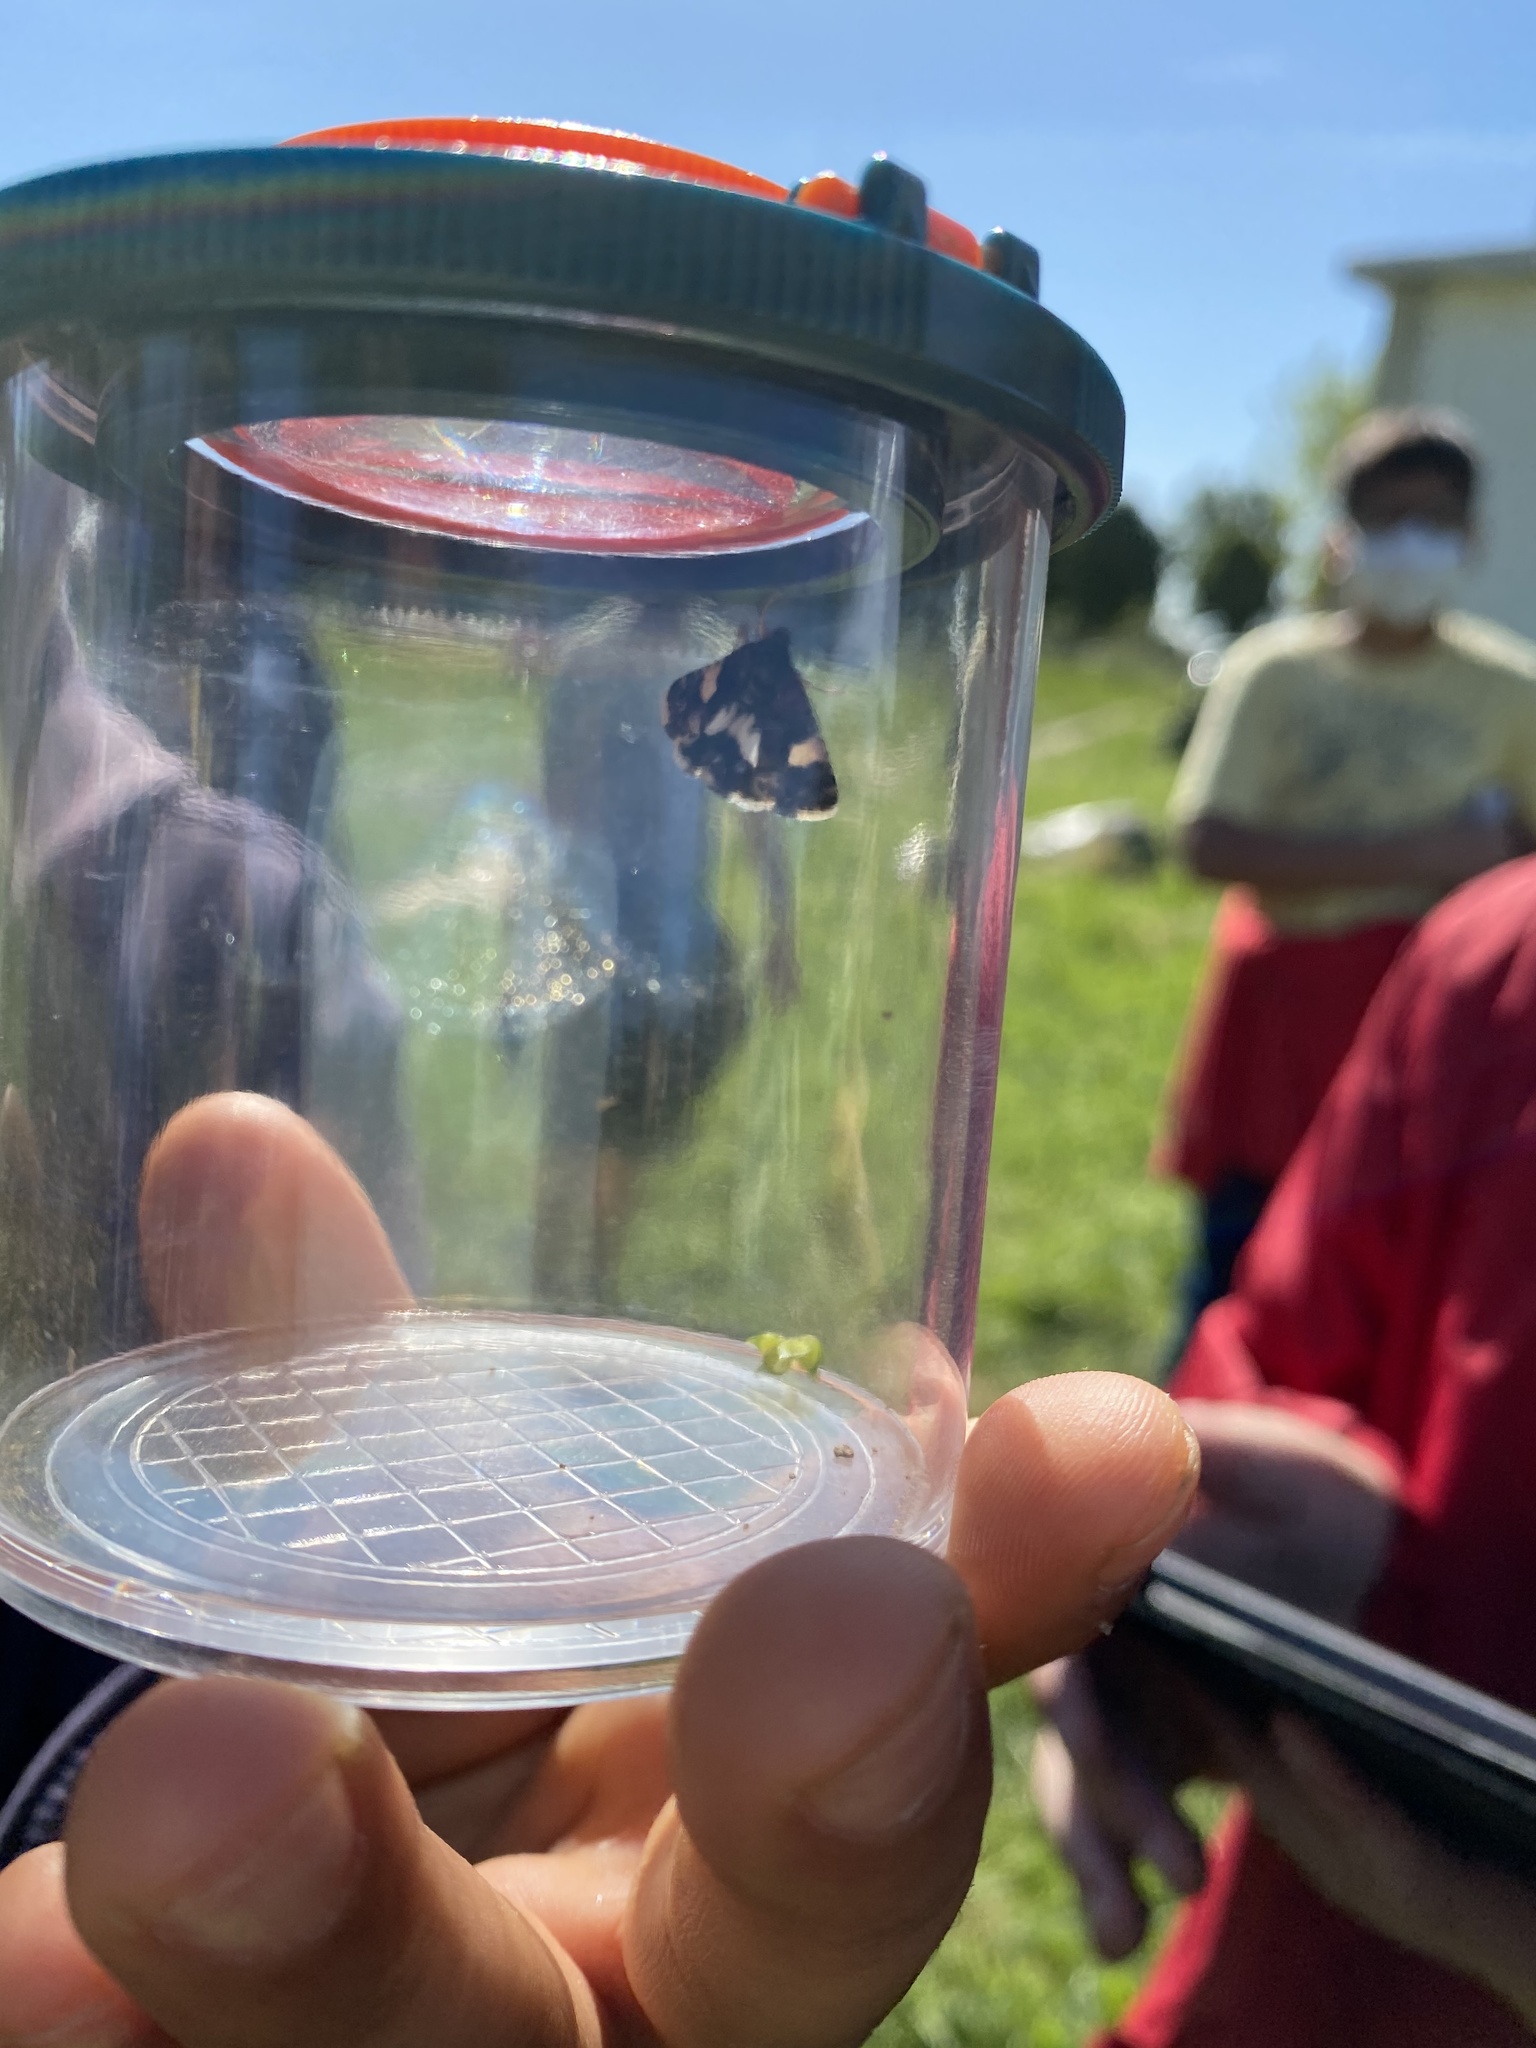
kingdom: Animalia
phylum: Arthropoda
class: Insecta
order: Lepidoptera
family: Erebidae
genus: Tyta
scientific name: Tyta luctuosa
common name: Four-spotted
